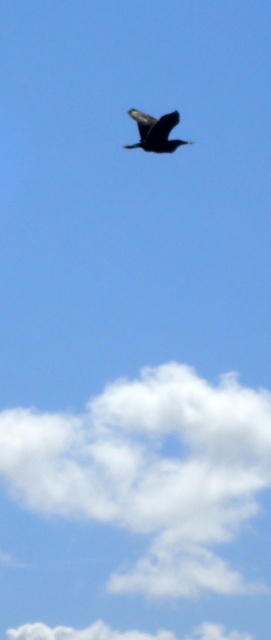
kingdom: Animalia
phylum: Chordata
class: Aves
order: Suliformes
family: Anhingidae
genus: Anhinga
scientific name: Anhinga anhinga
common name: Anhinga
